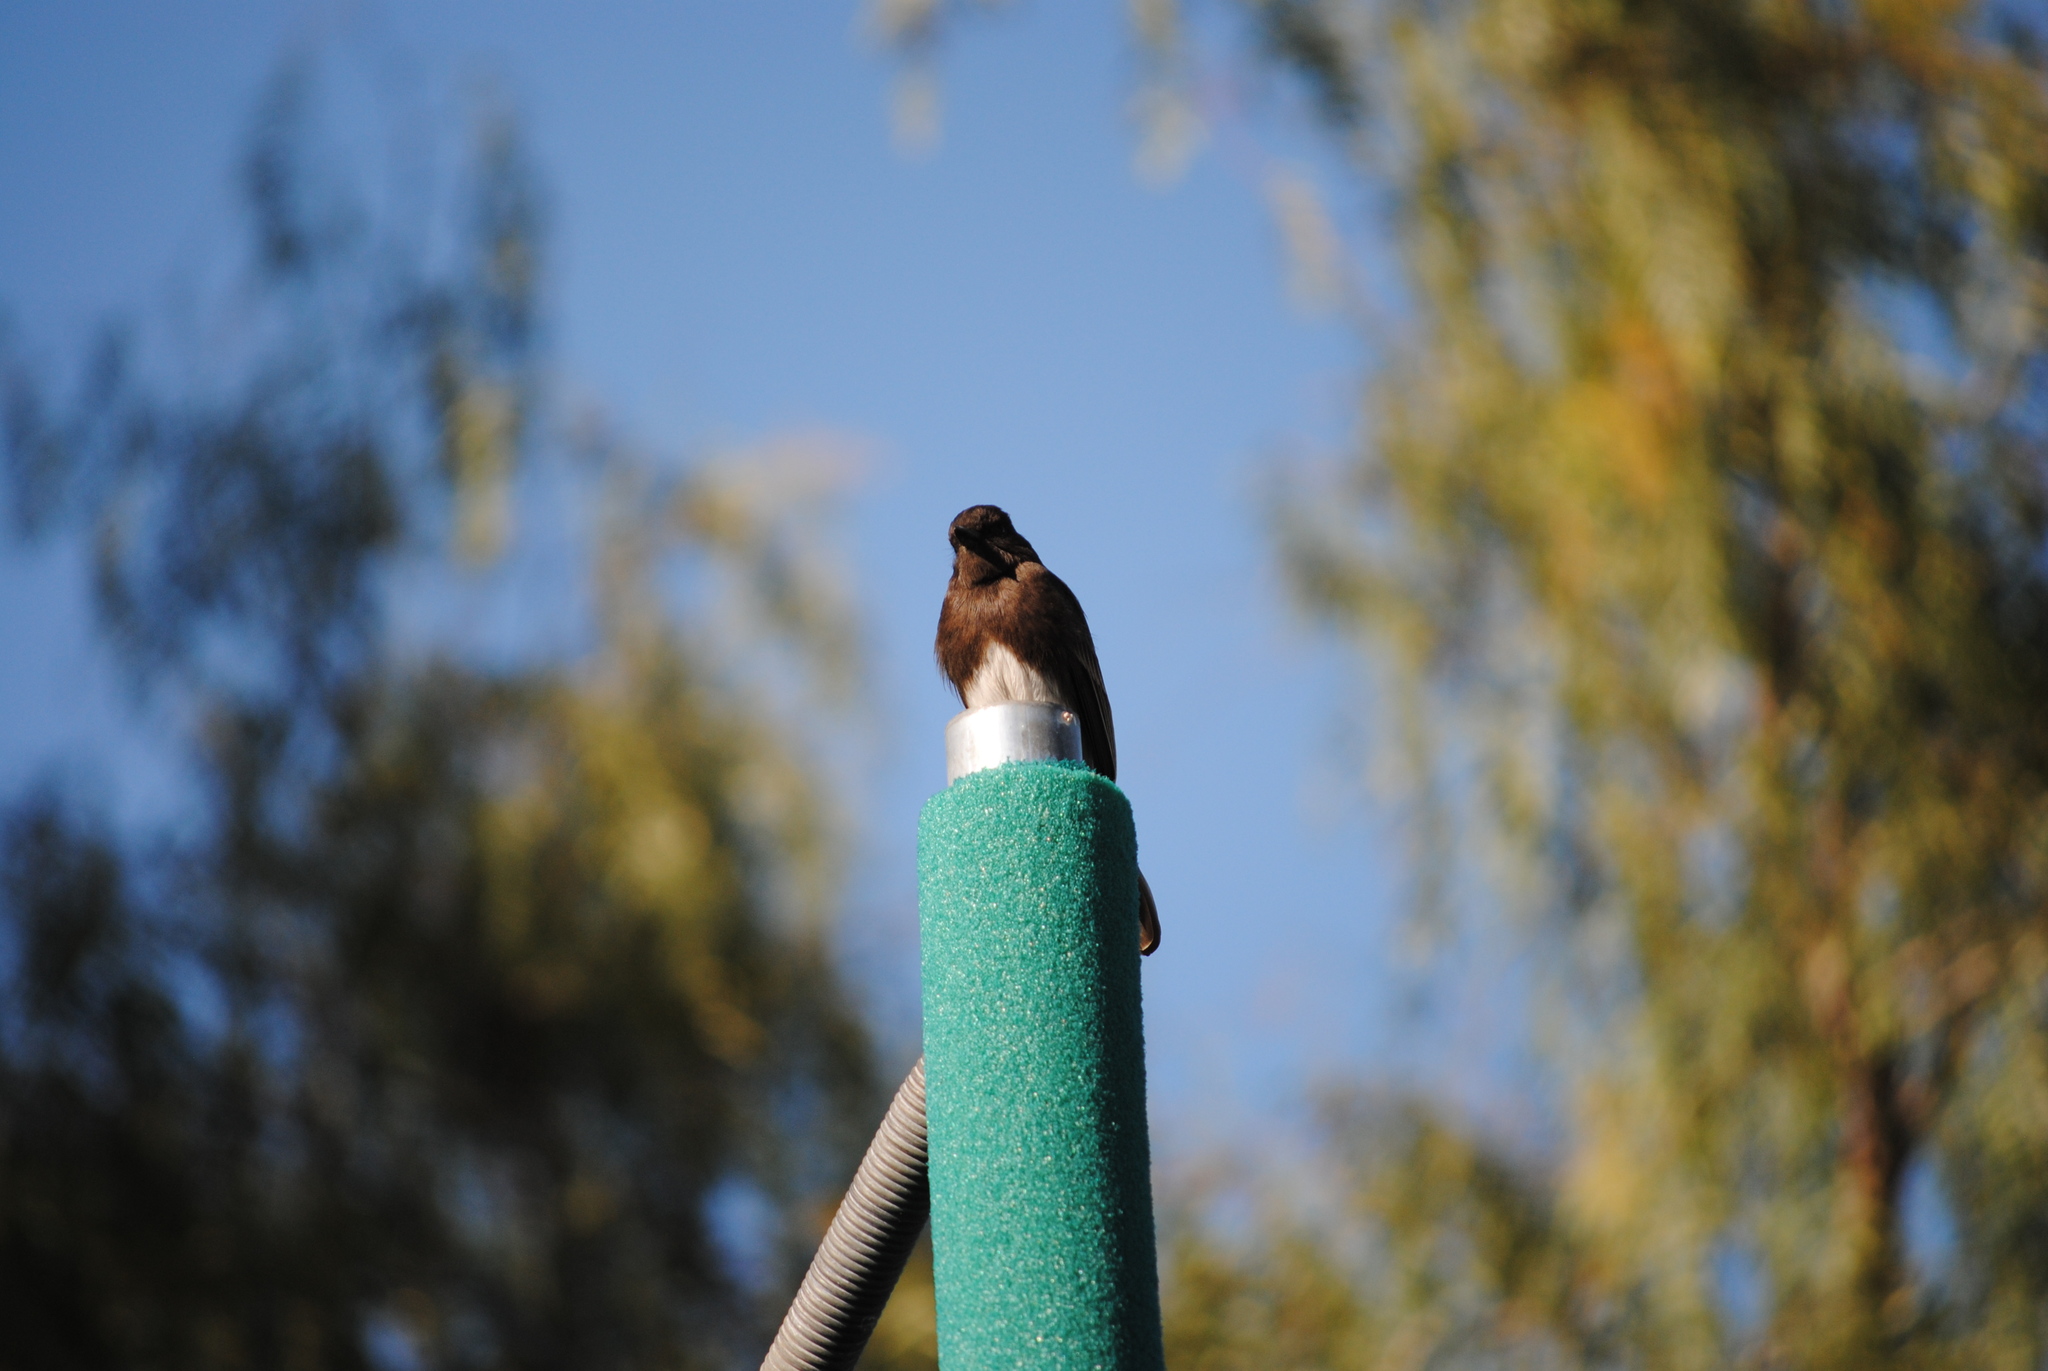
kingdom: Animalia
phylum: Chordata
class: Aves
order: Passeriformes
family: Tyrannidae
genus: Sayornis
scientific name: Sayornis nigricans
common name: Black phoebe
